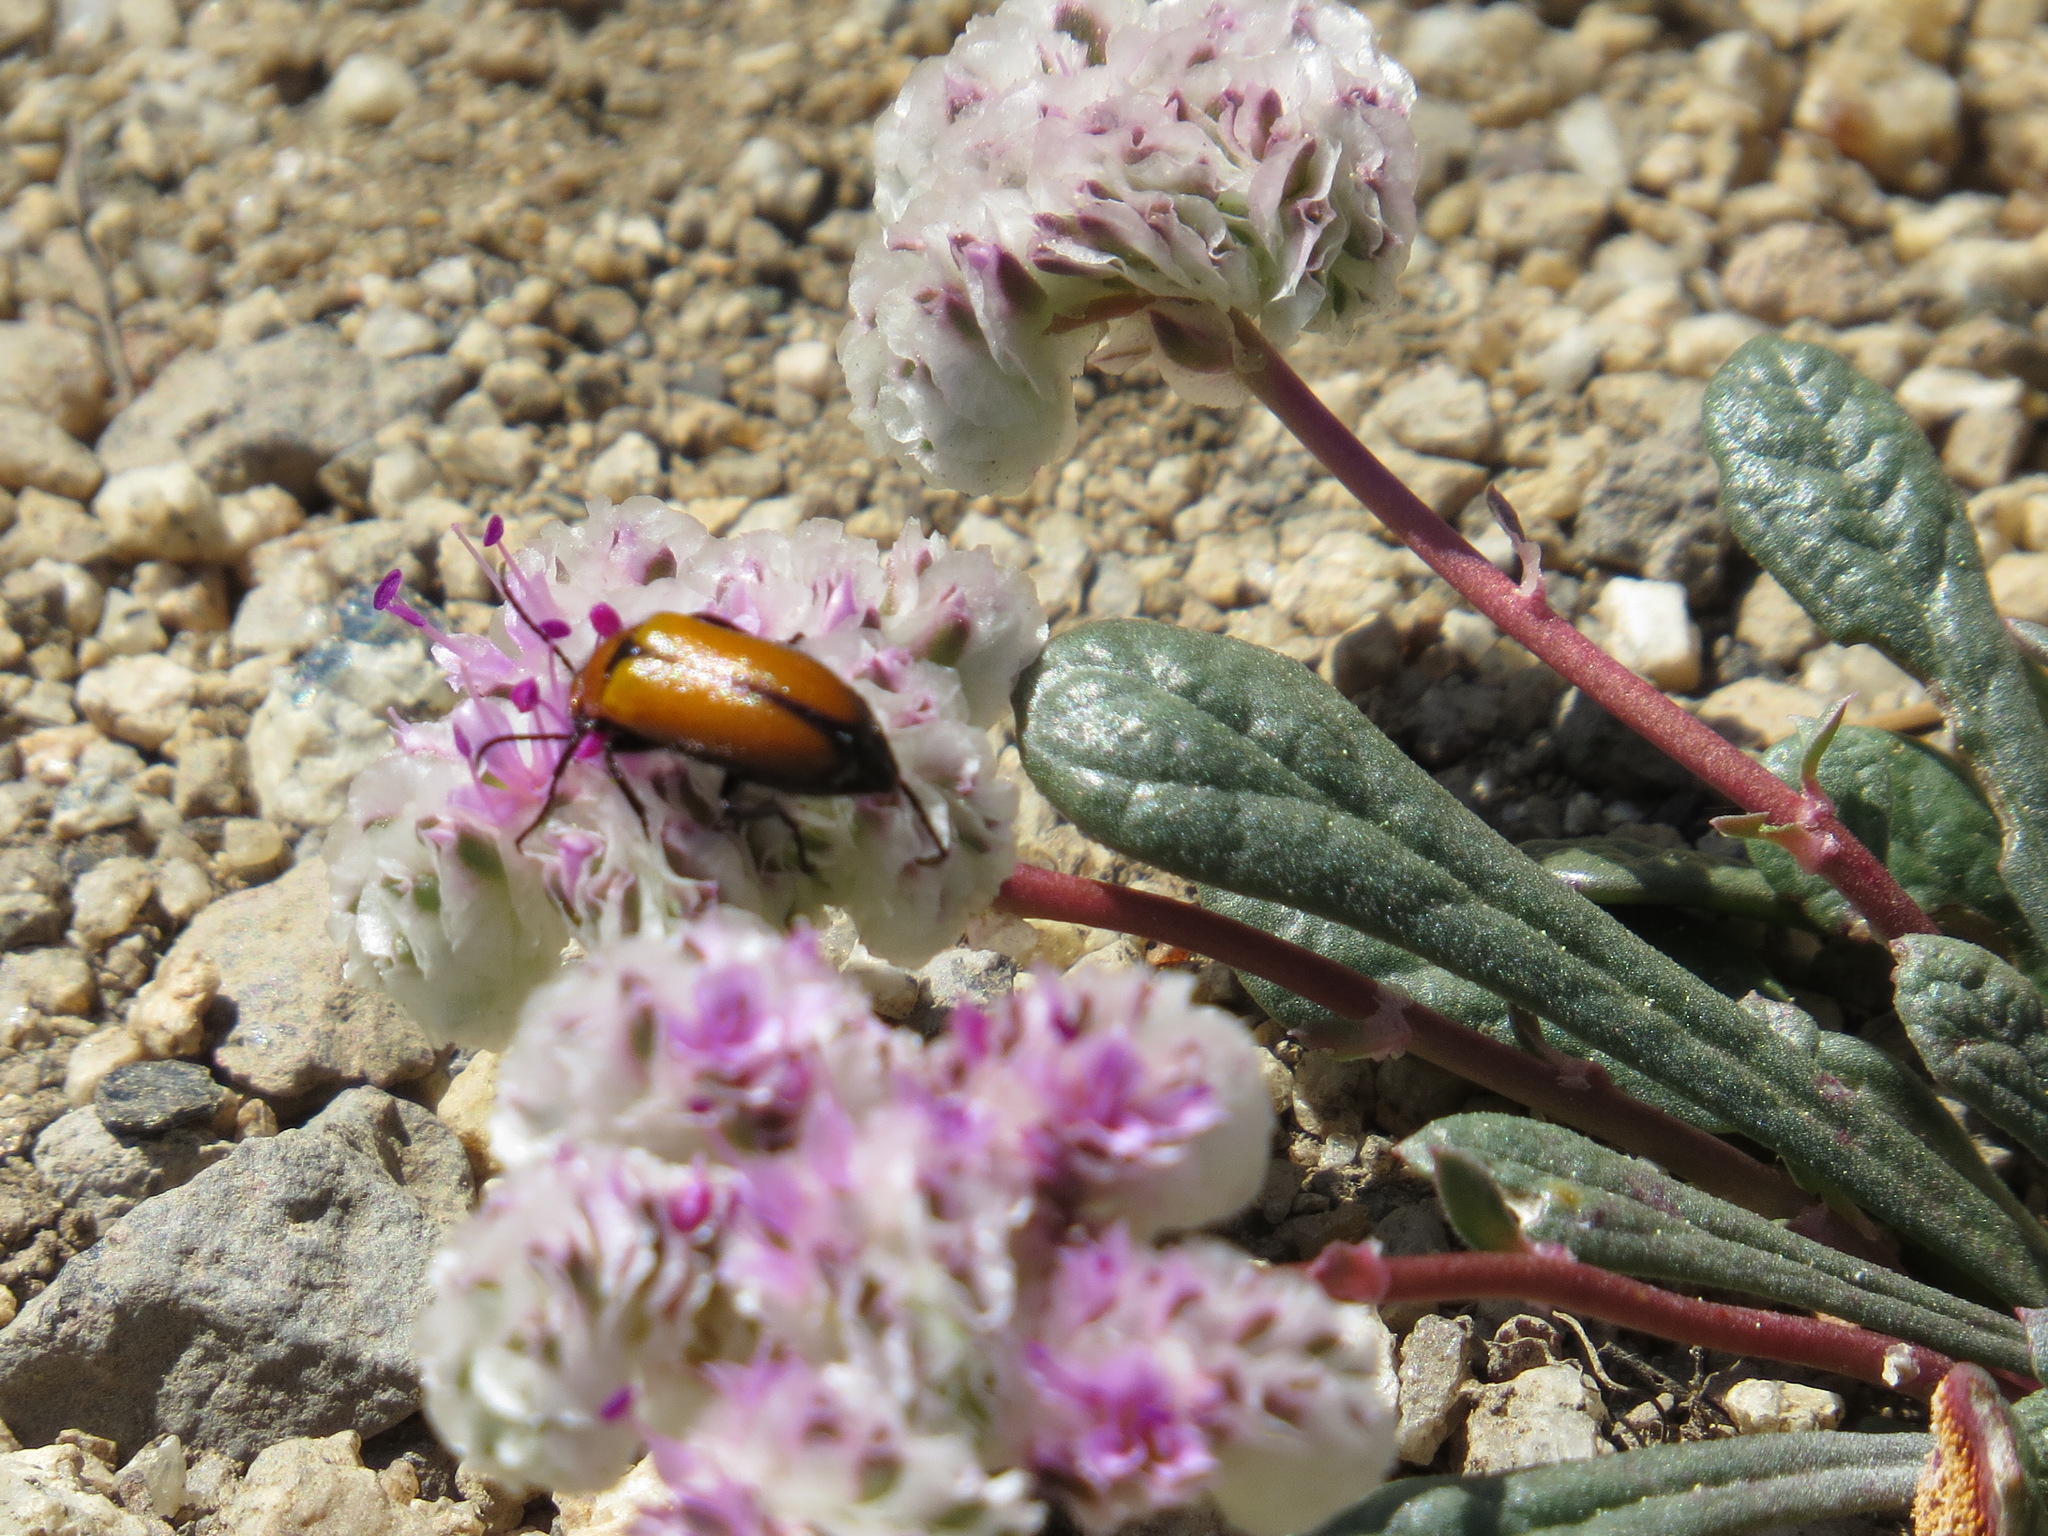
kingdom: Animalia
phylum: Arthropoda
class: Insecta
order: Coleoptera
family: Meloidae
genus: Nemognatha
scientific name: Nemognatha scutellaris
